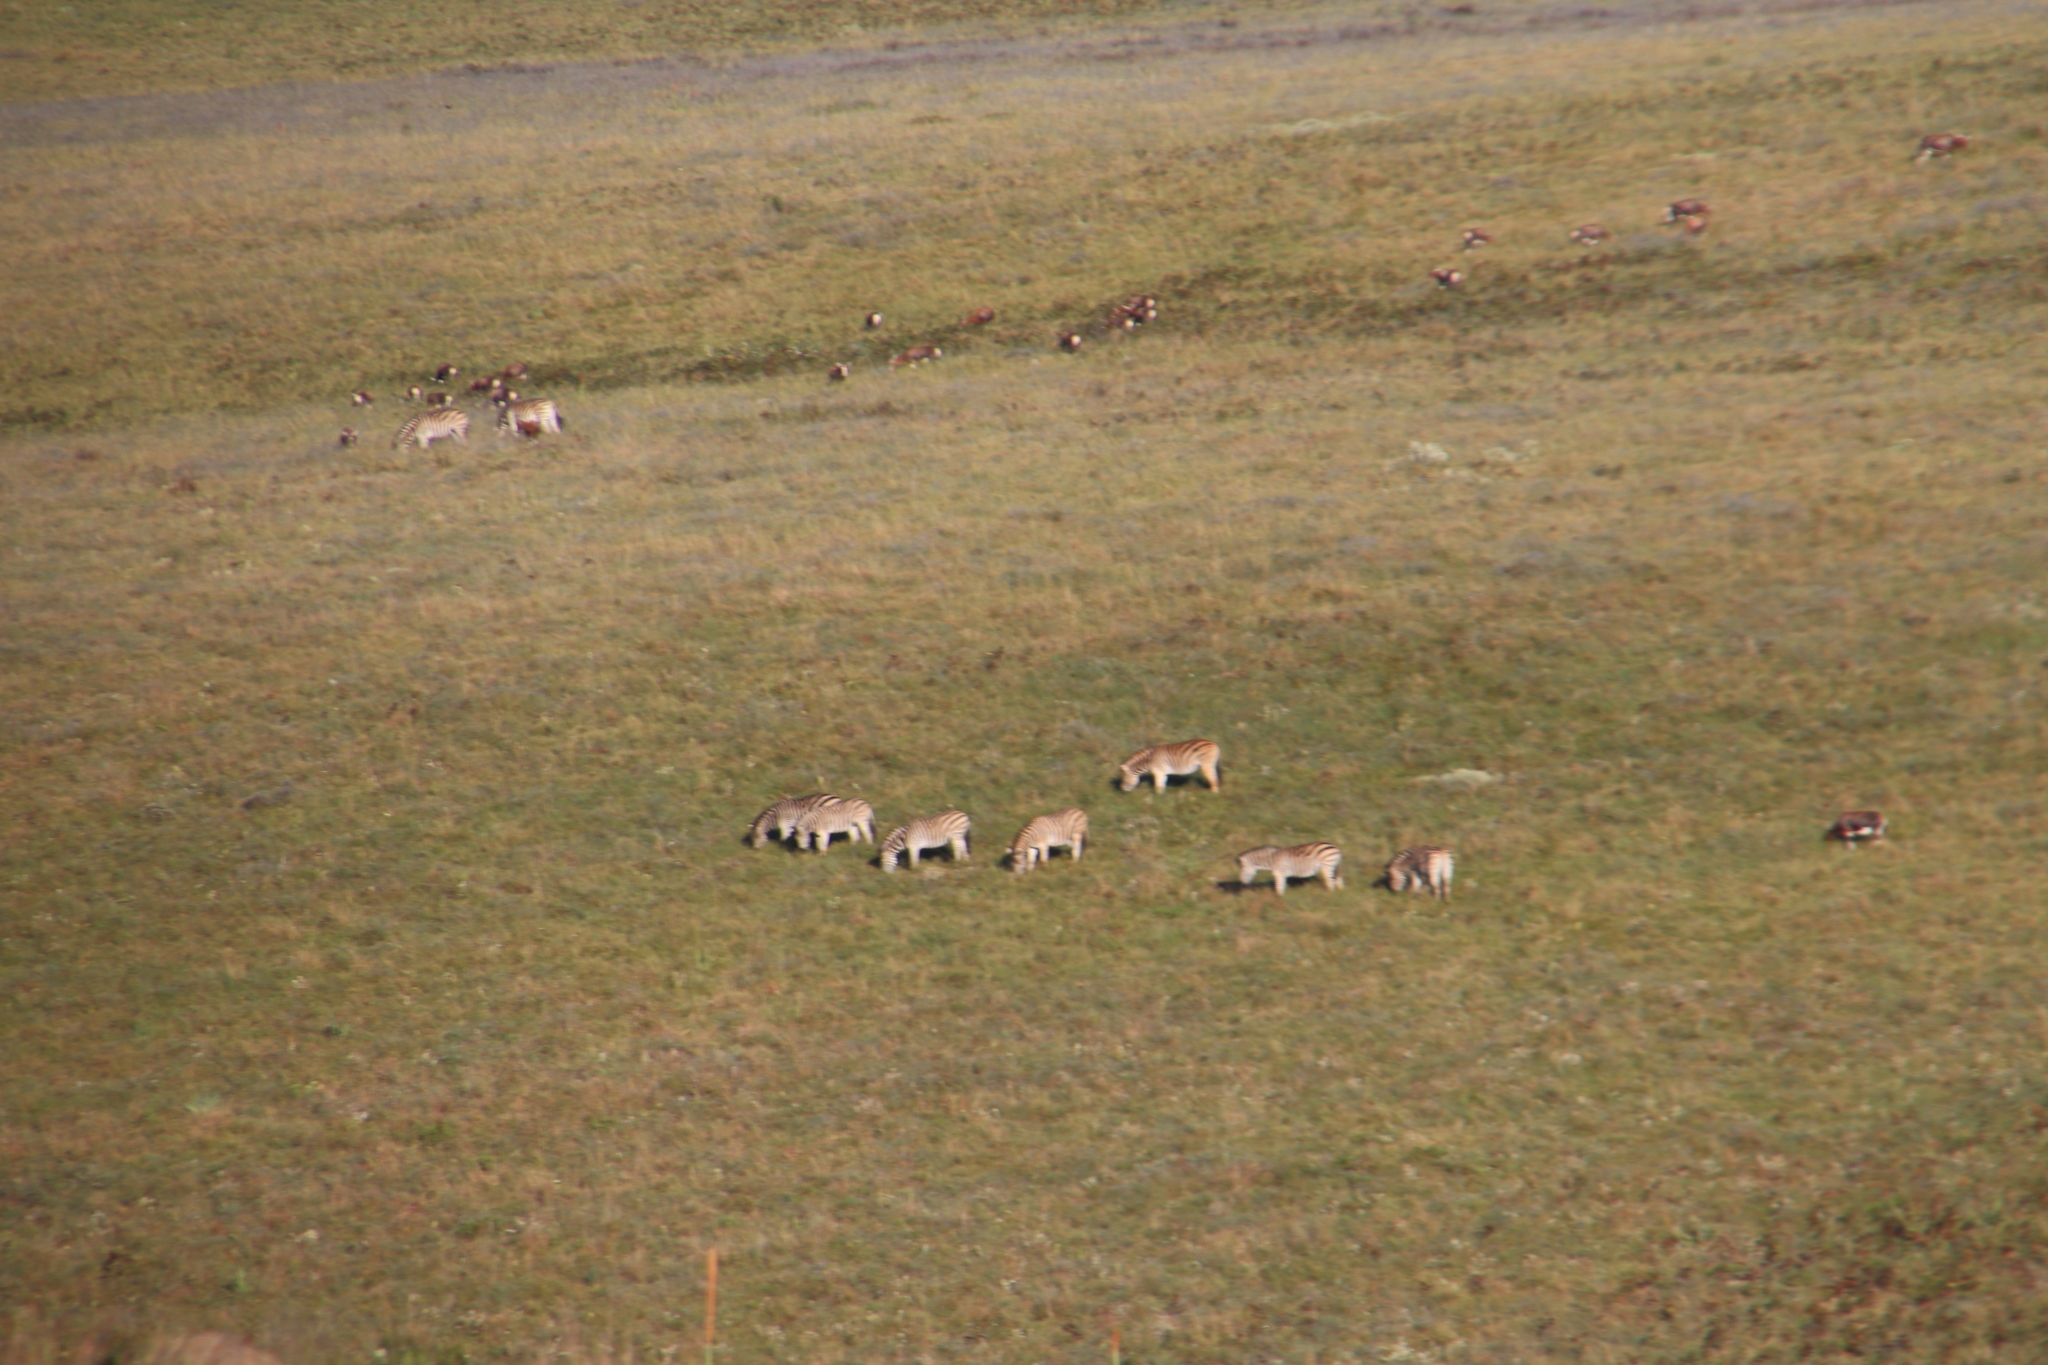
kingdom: Animalia
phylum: Chordata
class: Mammalia
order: Perissodactyla
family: Equidae
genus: Equus
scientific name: Equus quagga
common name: Plains zebra
